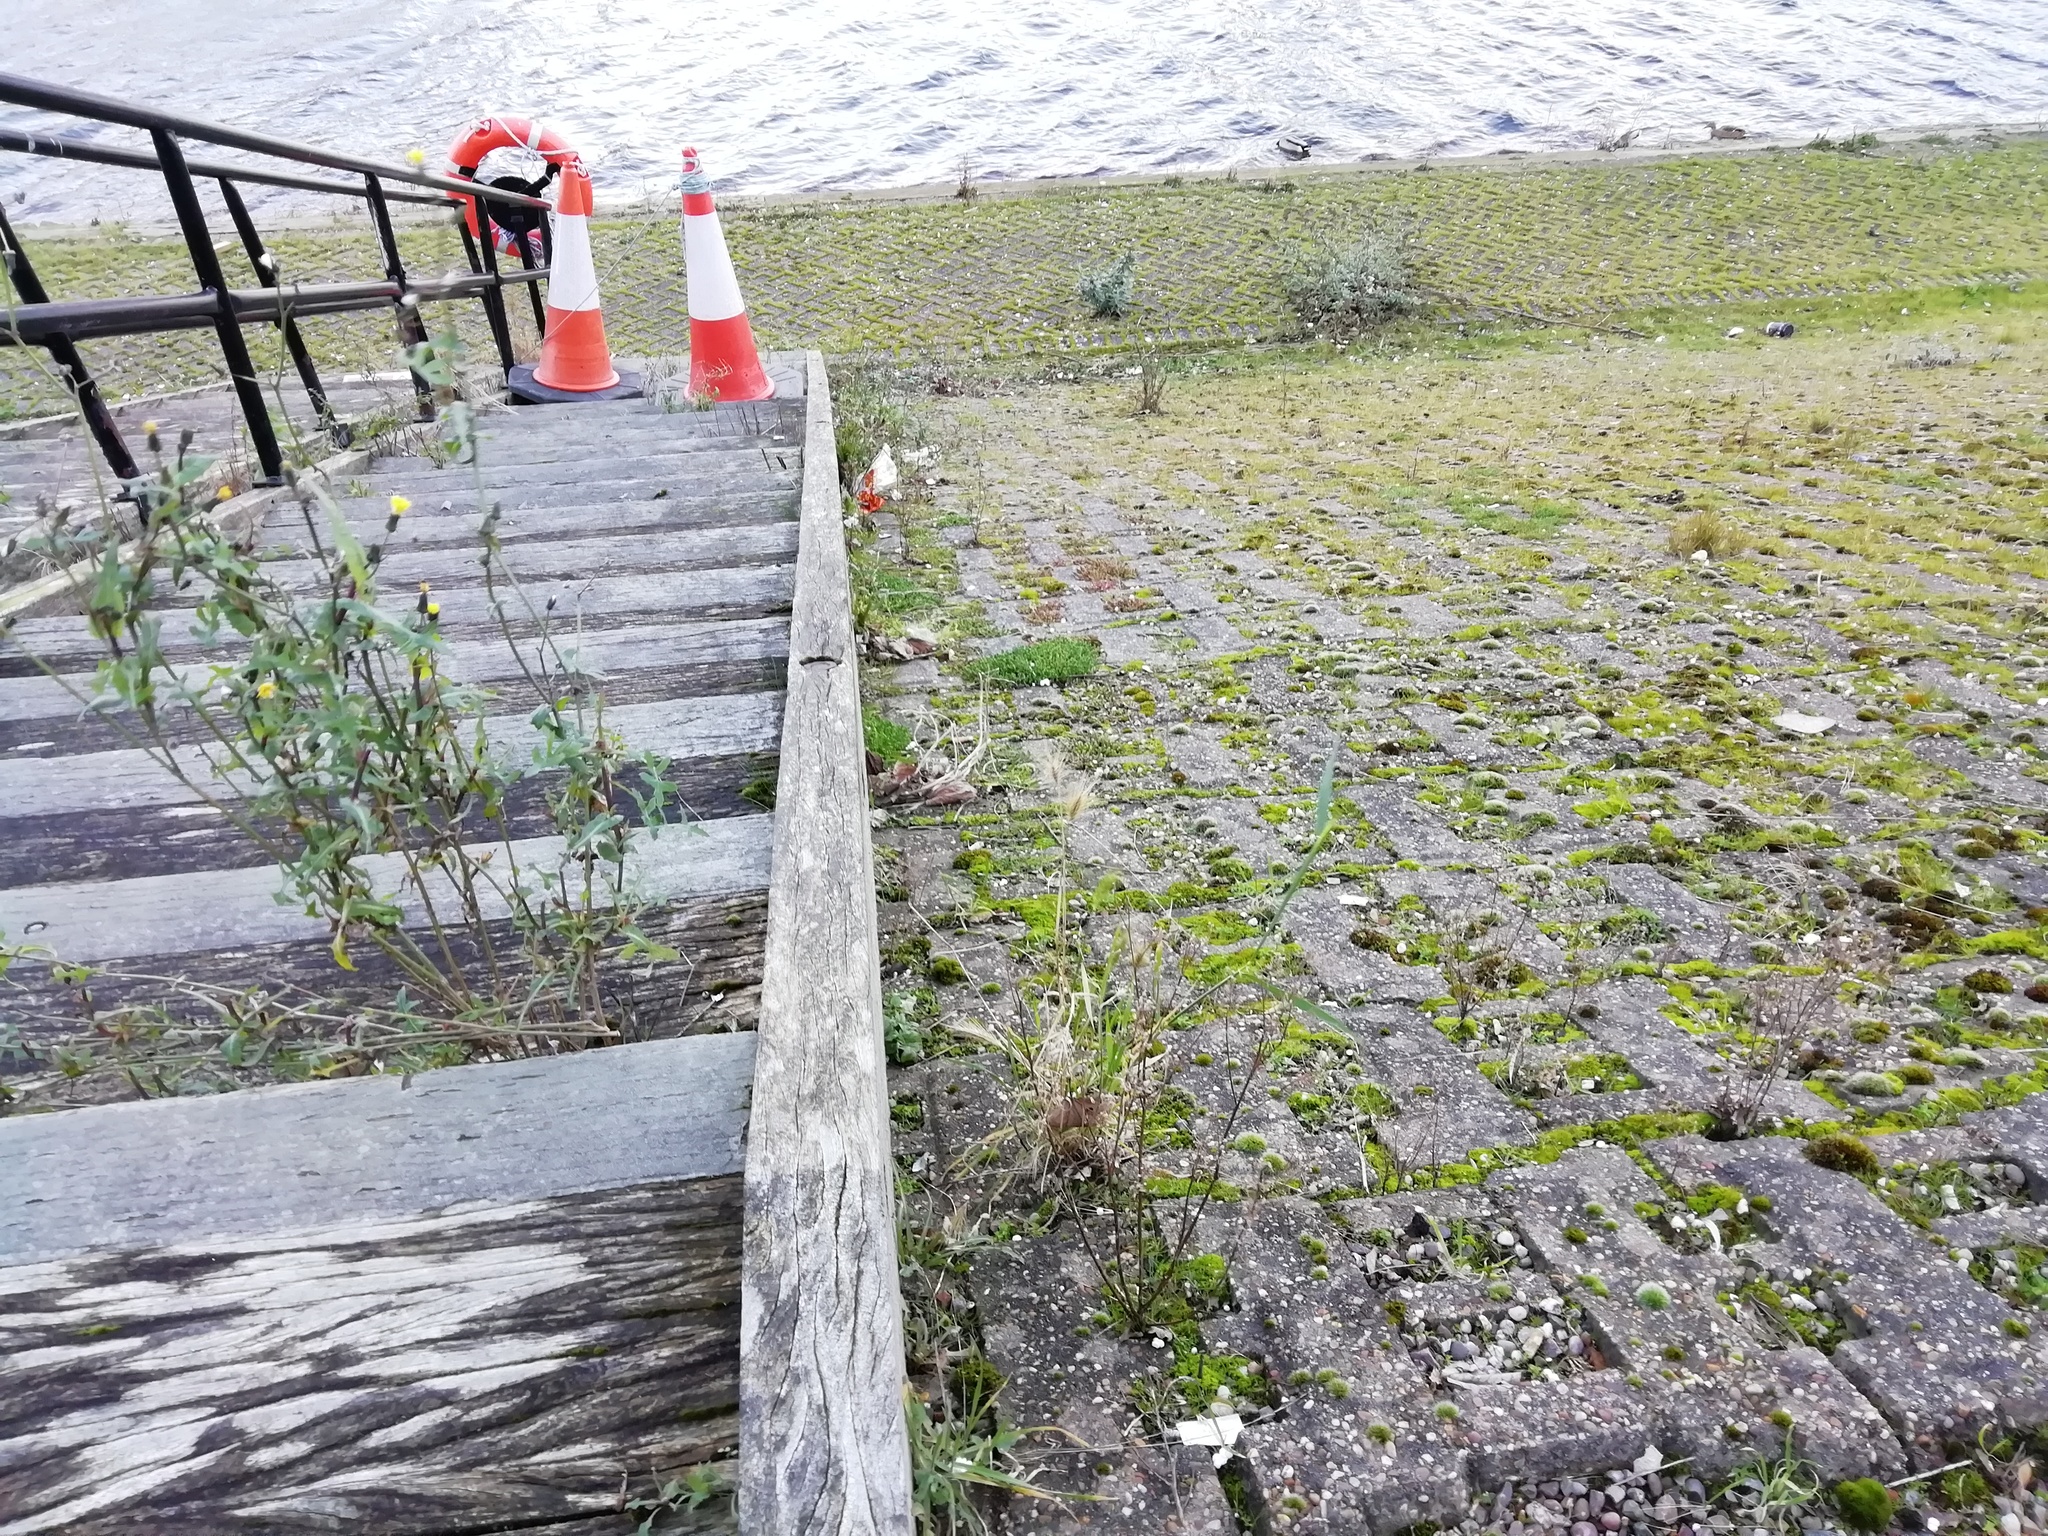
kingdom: Animalia
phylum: Chordata
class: Aves
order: Anseriformes
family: Anatidae
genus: Anas
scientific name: Anas platyrhynchos
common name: Mallard
